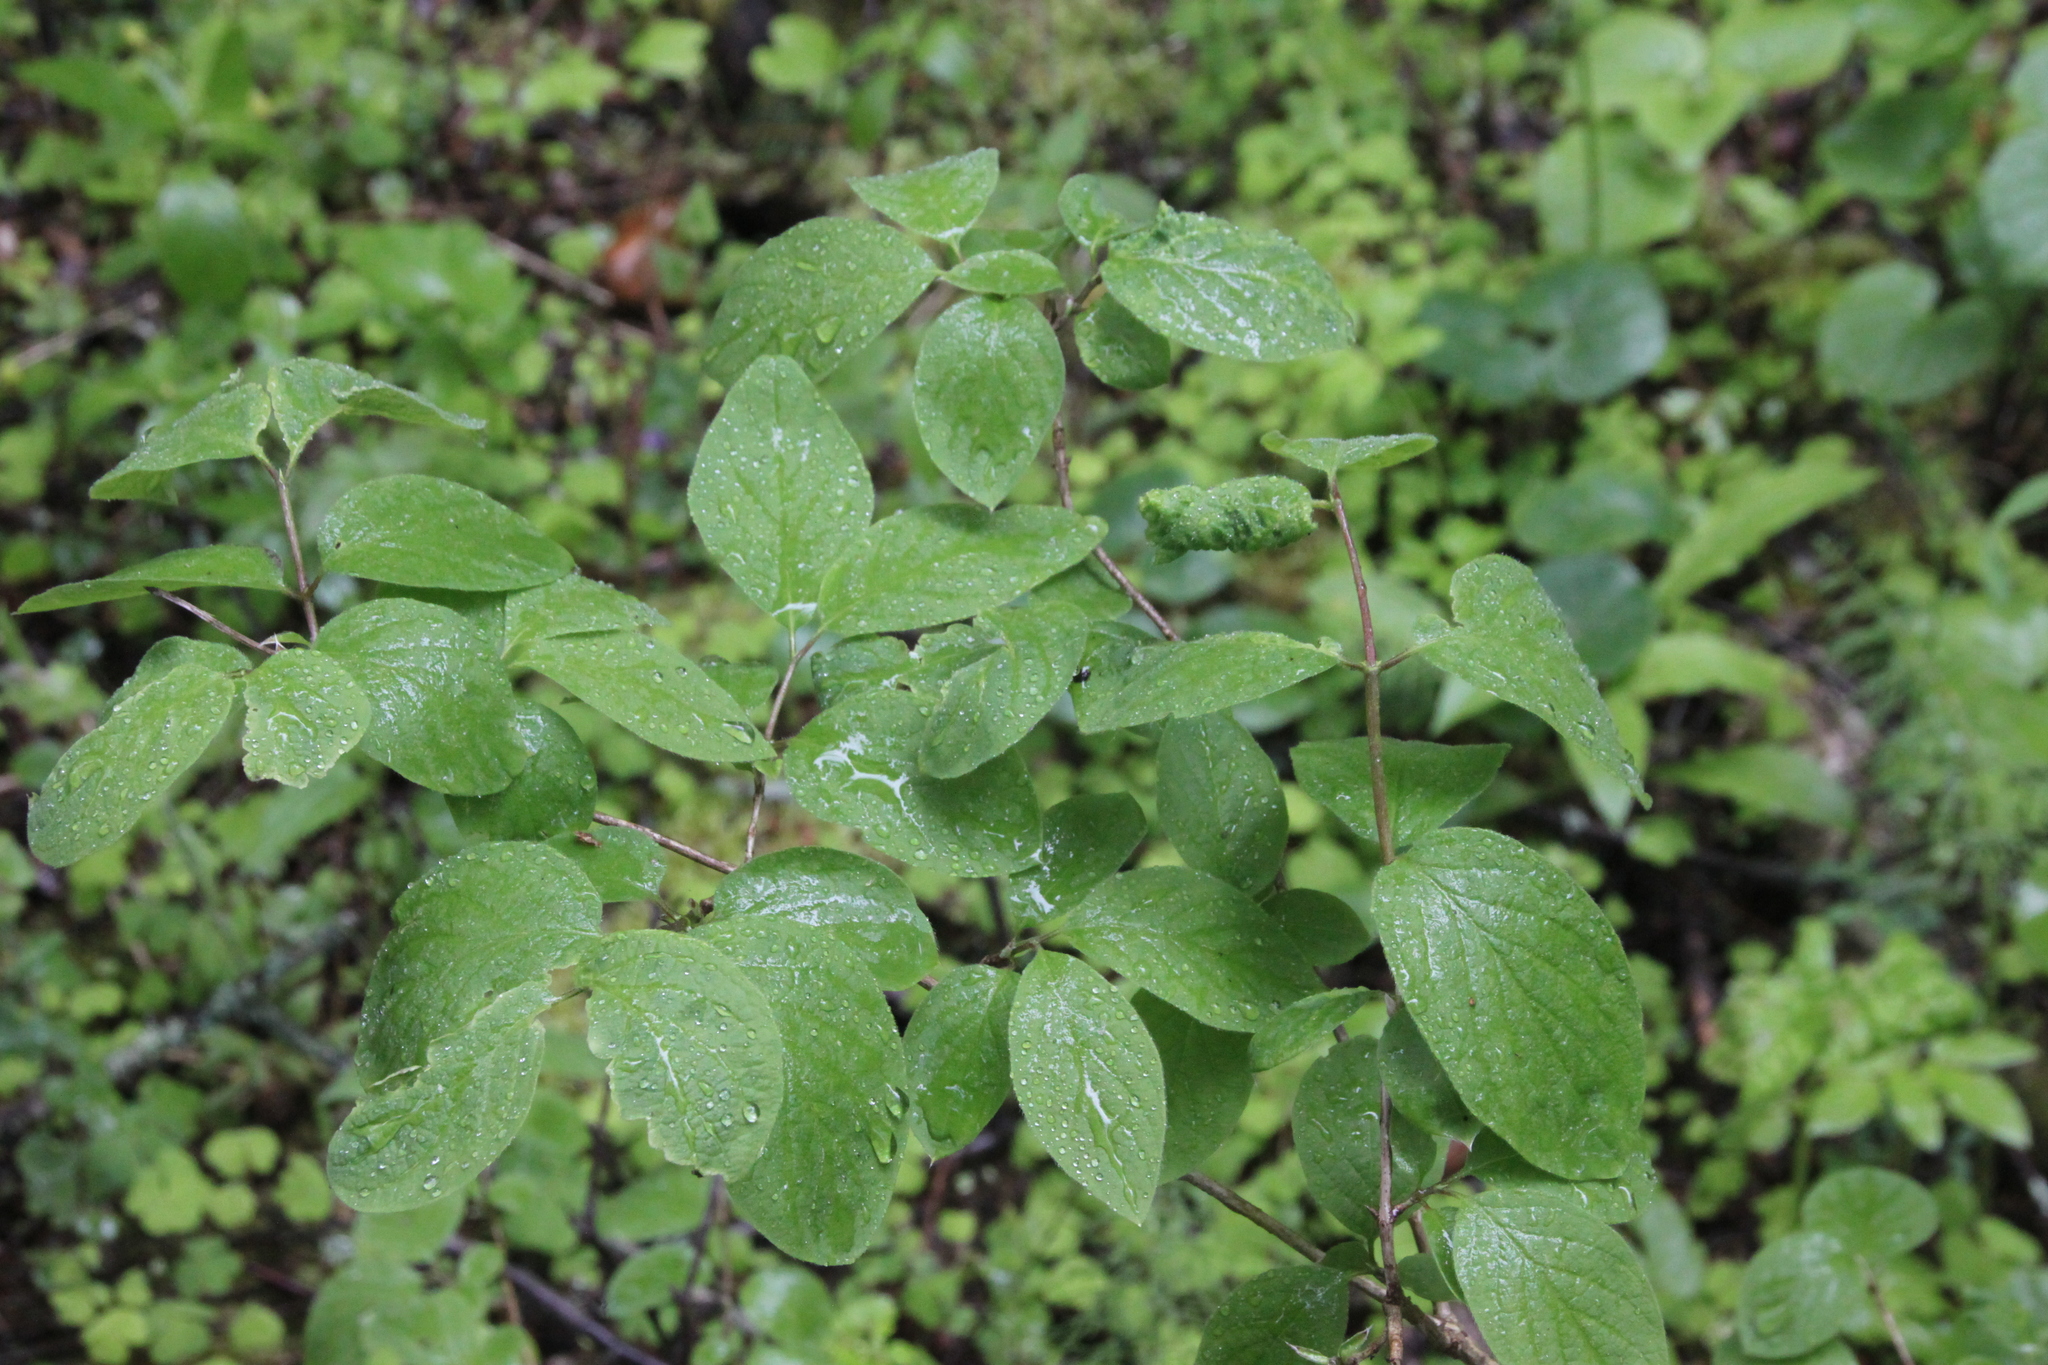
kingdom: Plantae
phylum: Tracheophyta
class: Magnoliopsida
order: Dipsacales
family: Caprifoliaceae
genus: Lonicera
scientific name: Lonicera xylosteum
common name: Fly honeysuckle
